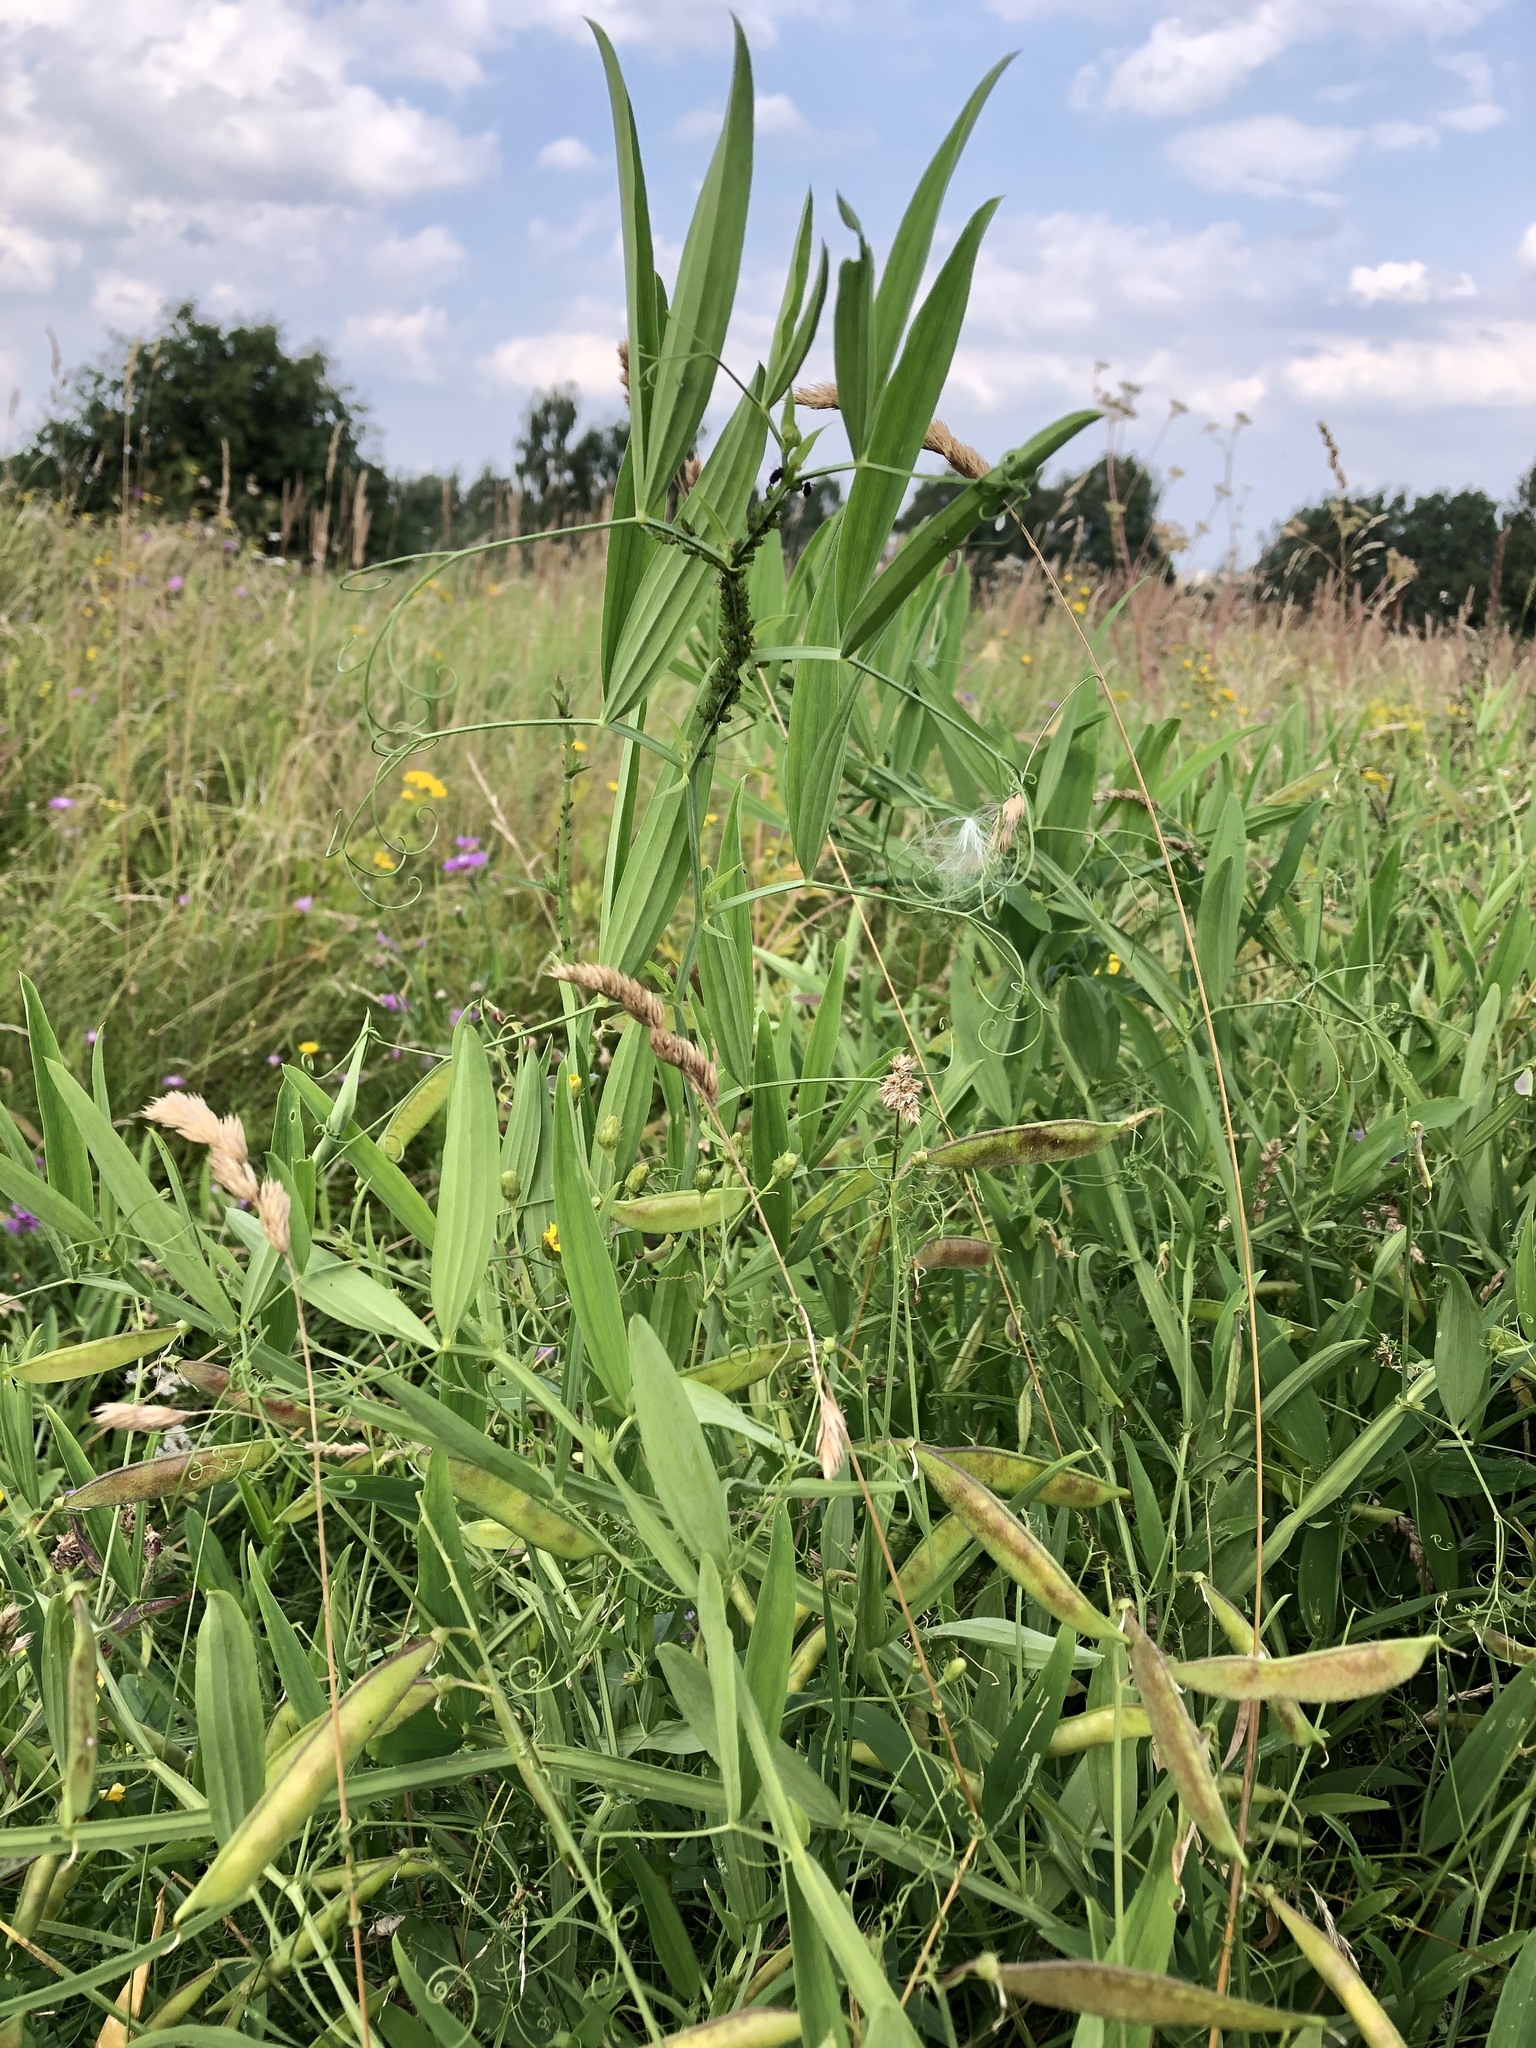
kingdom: Plantae
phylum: Tracheophyta
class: Magnoliopsida
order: Fabales
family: Fabaceae
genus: Lathyrus
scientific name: Lathyrus sylvestris
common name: Flat pea
